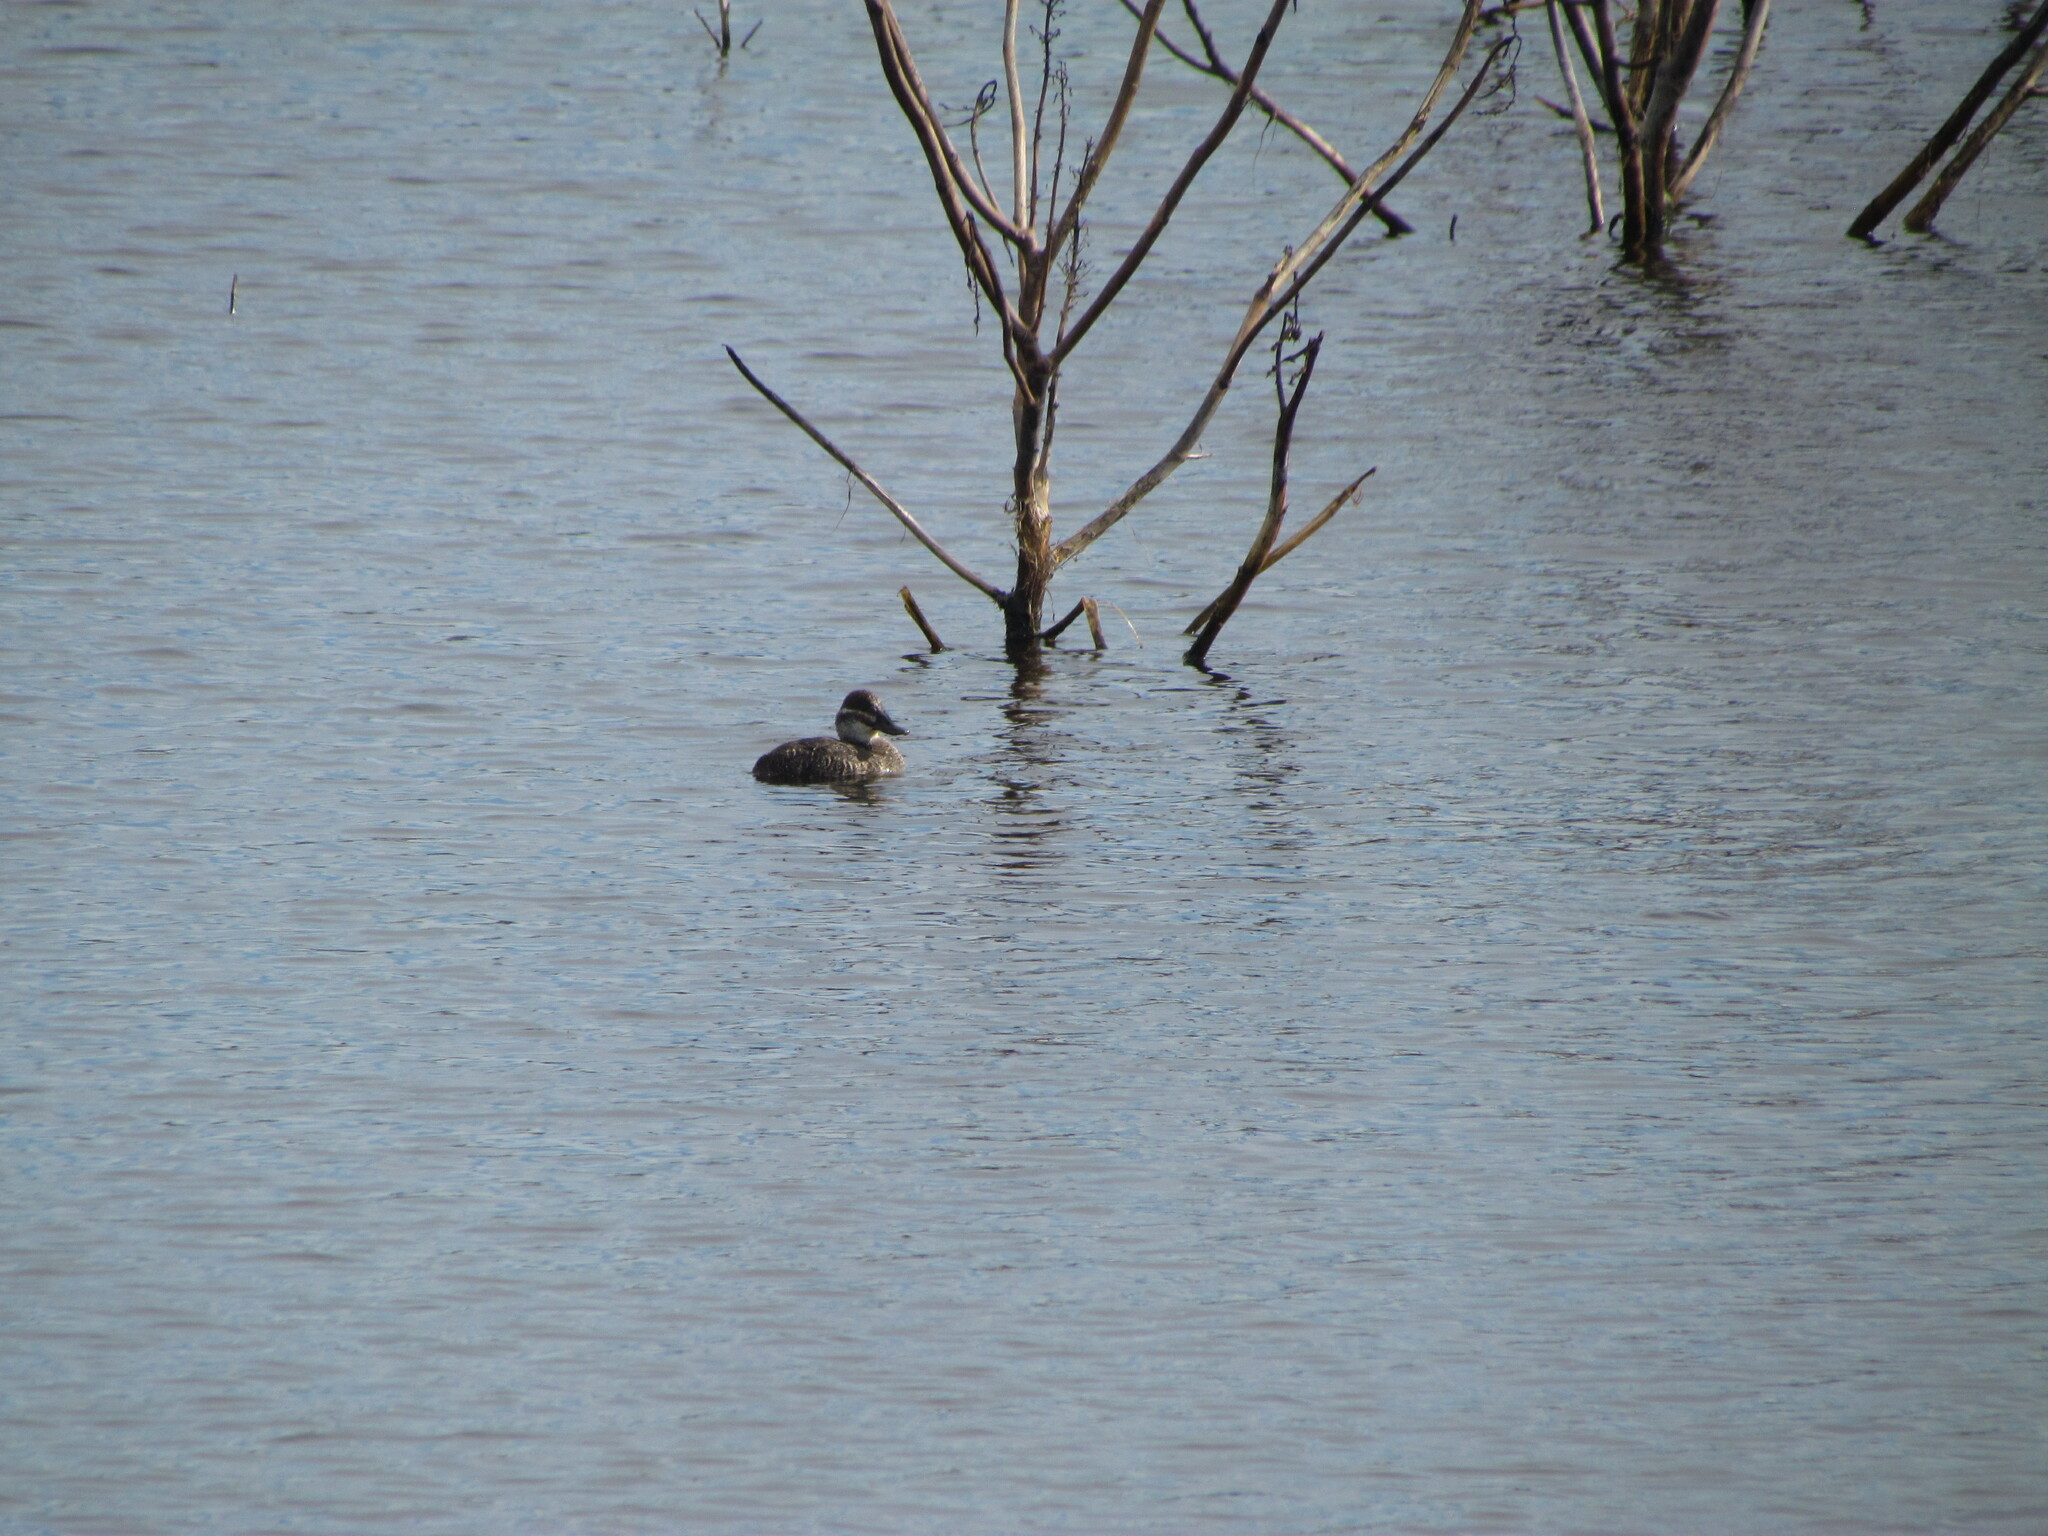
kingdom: Animalia
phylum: Chordata
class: Aves
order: Anseriformes
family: Anatidae
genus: Oxyura
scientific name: Oxyura vittata
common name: Lake duck
